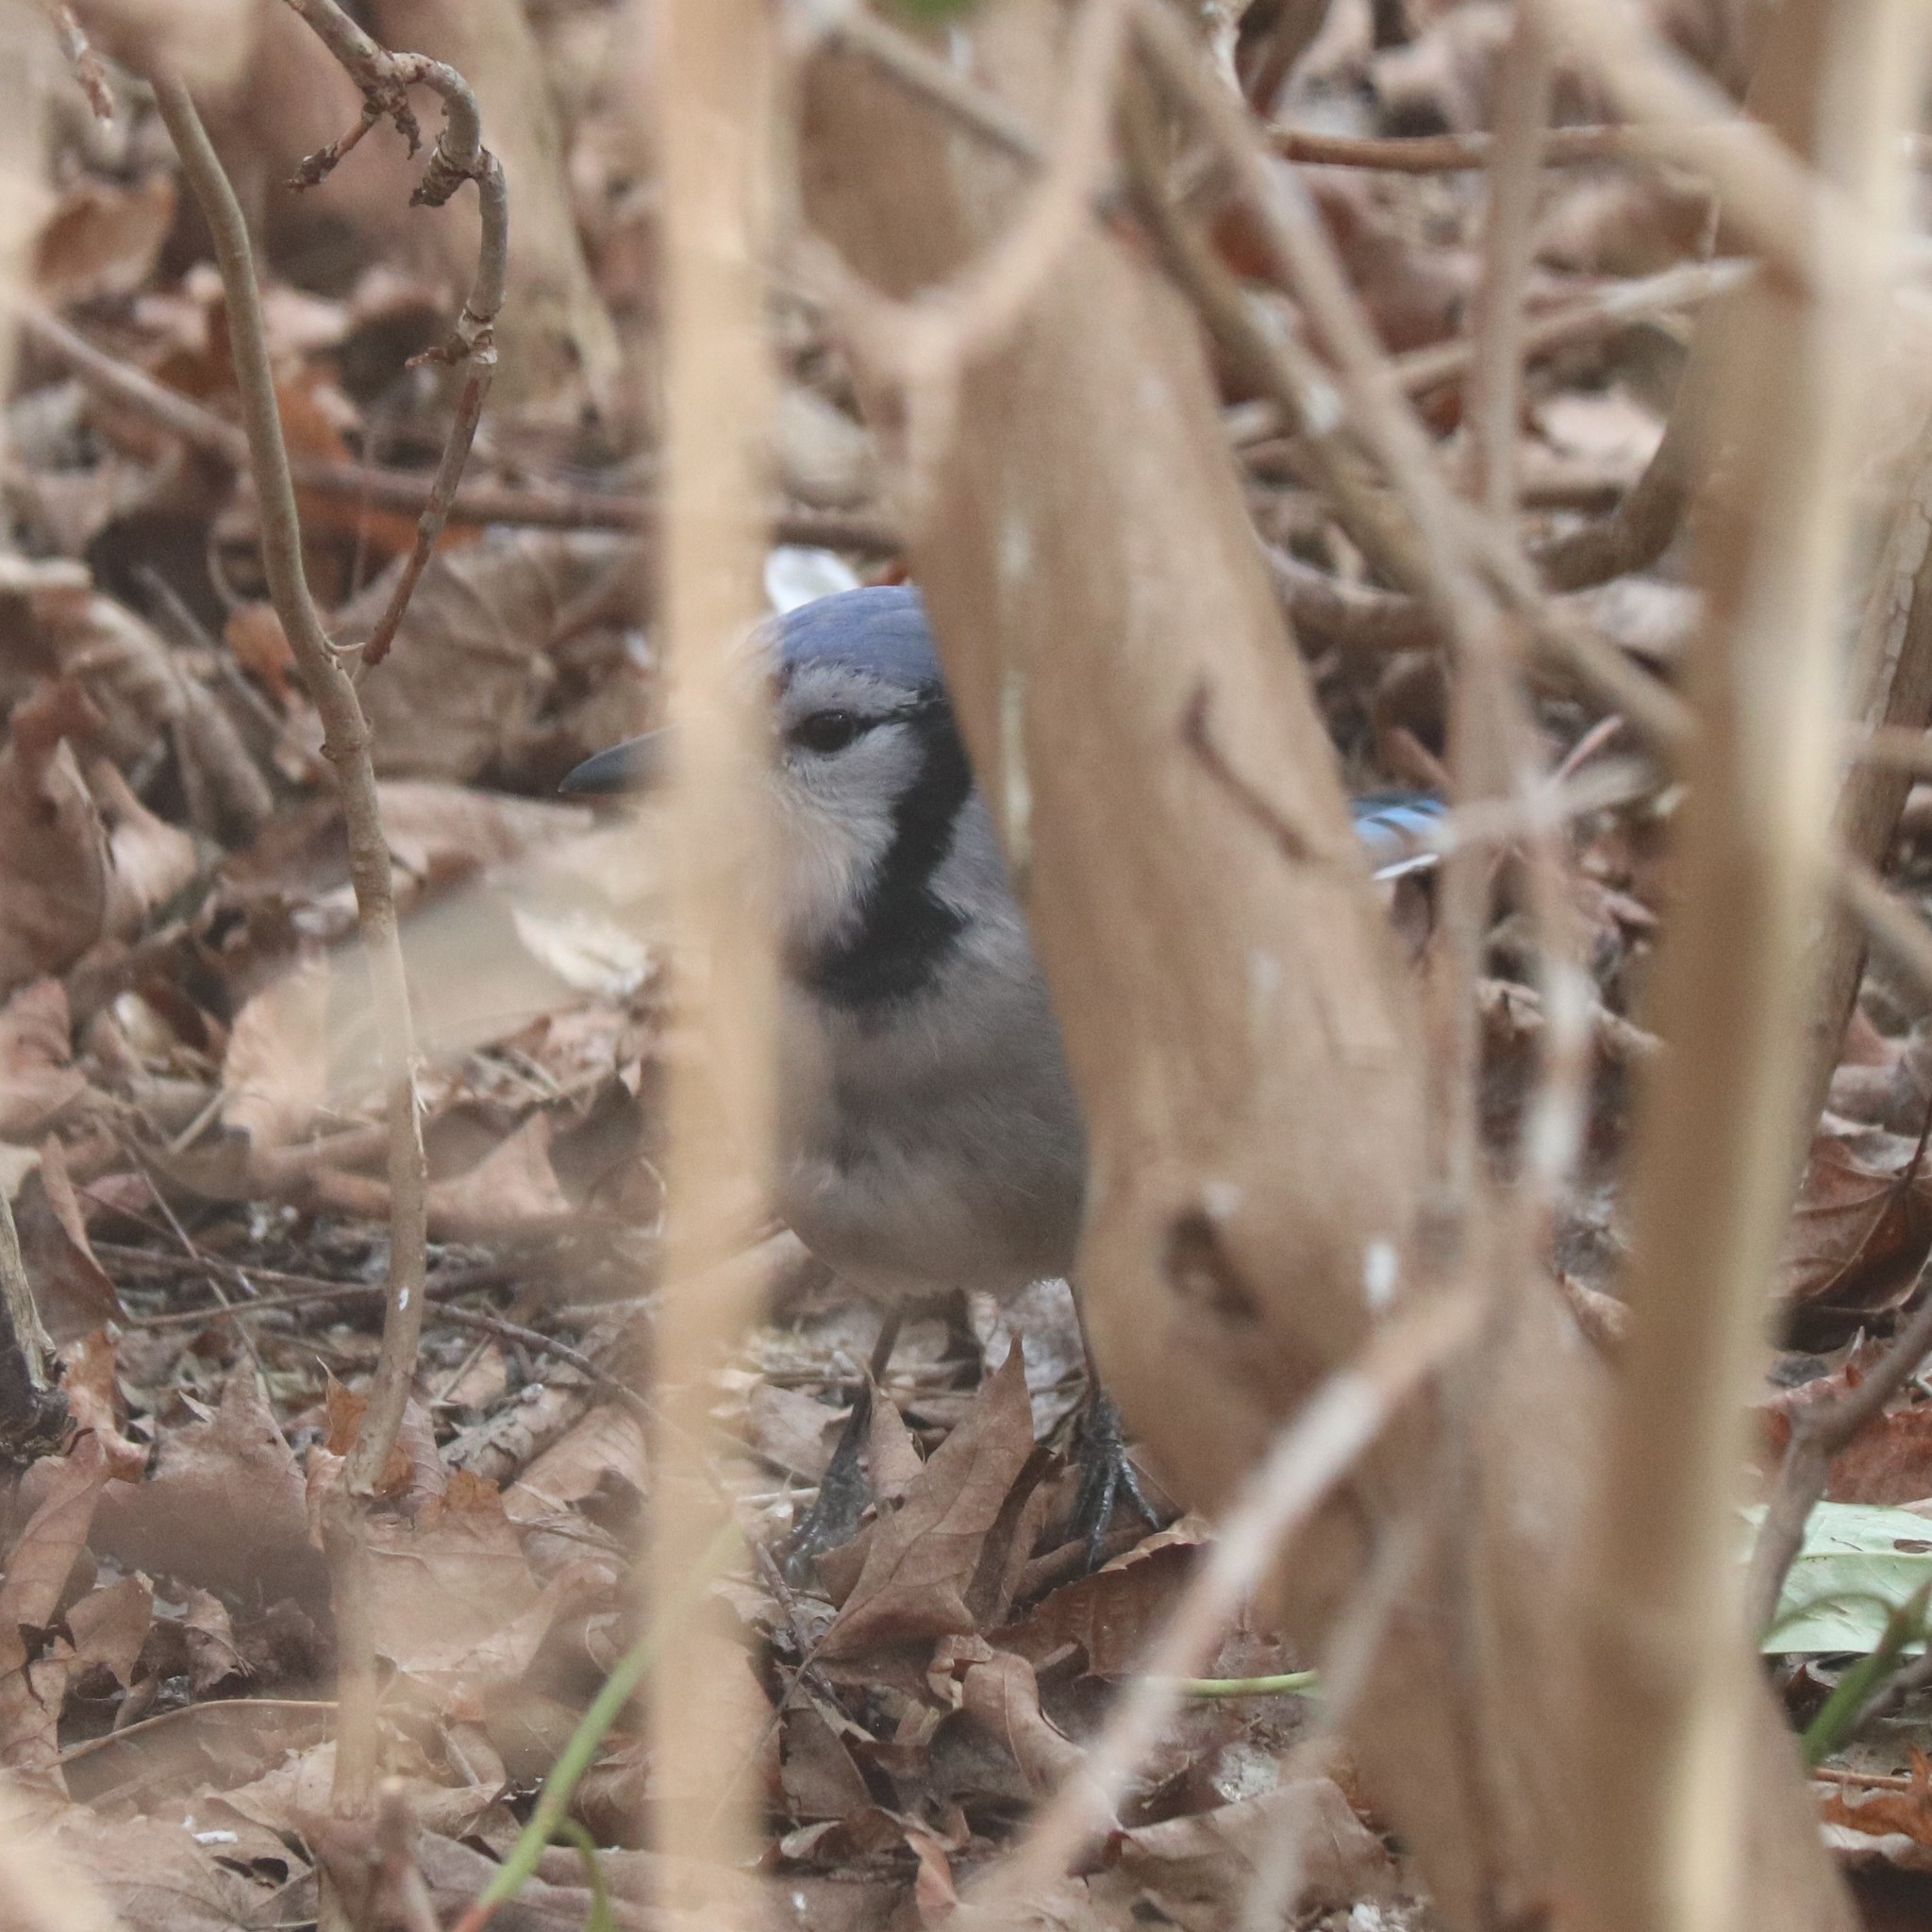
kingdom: Animalia
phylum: Chordata
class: Aves
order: Passeriformes
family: Corvidae
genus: Cyanocitta
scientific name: Cyanocitta cristata
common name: Blue jay
